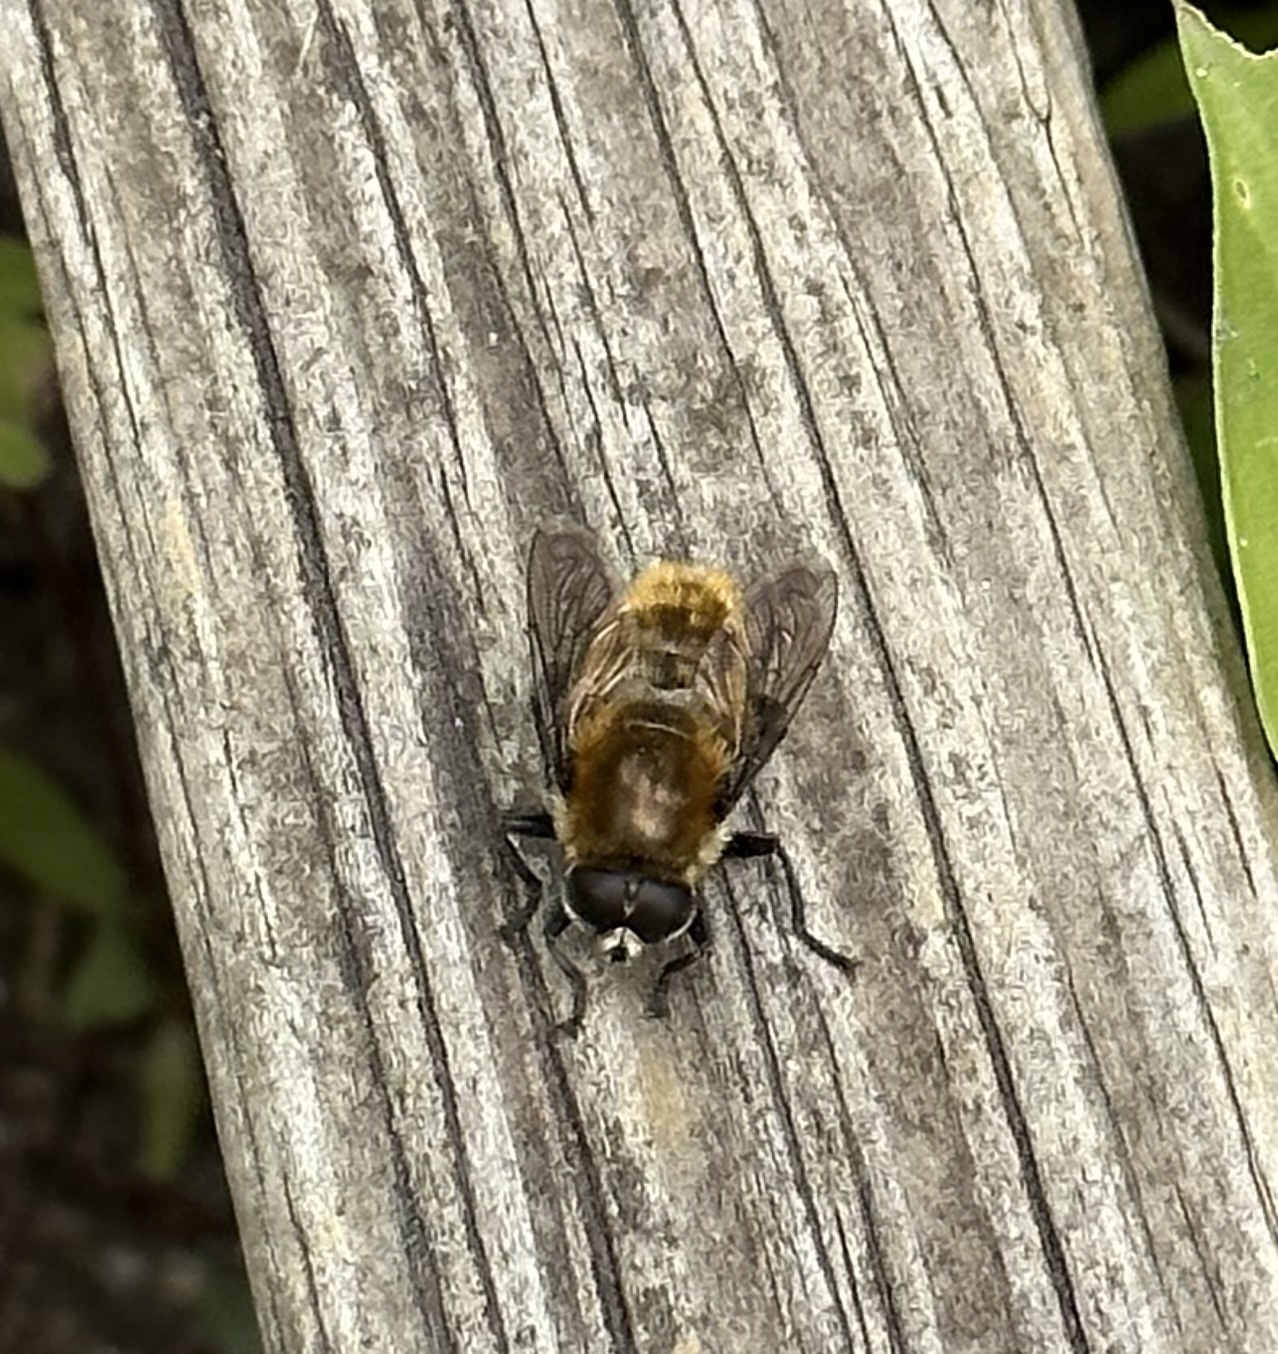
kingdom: Animalia
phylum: Arthropoda
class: Insecta
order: Diptera
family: Syrphidae
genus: Merodon
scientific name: Merodon equestris
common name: Greater bulb-fly
